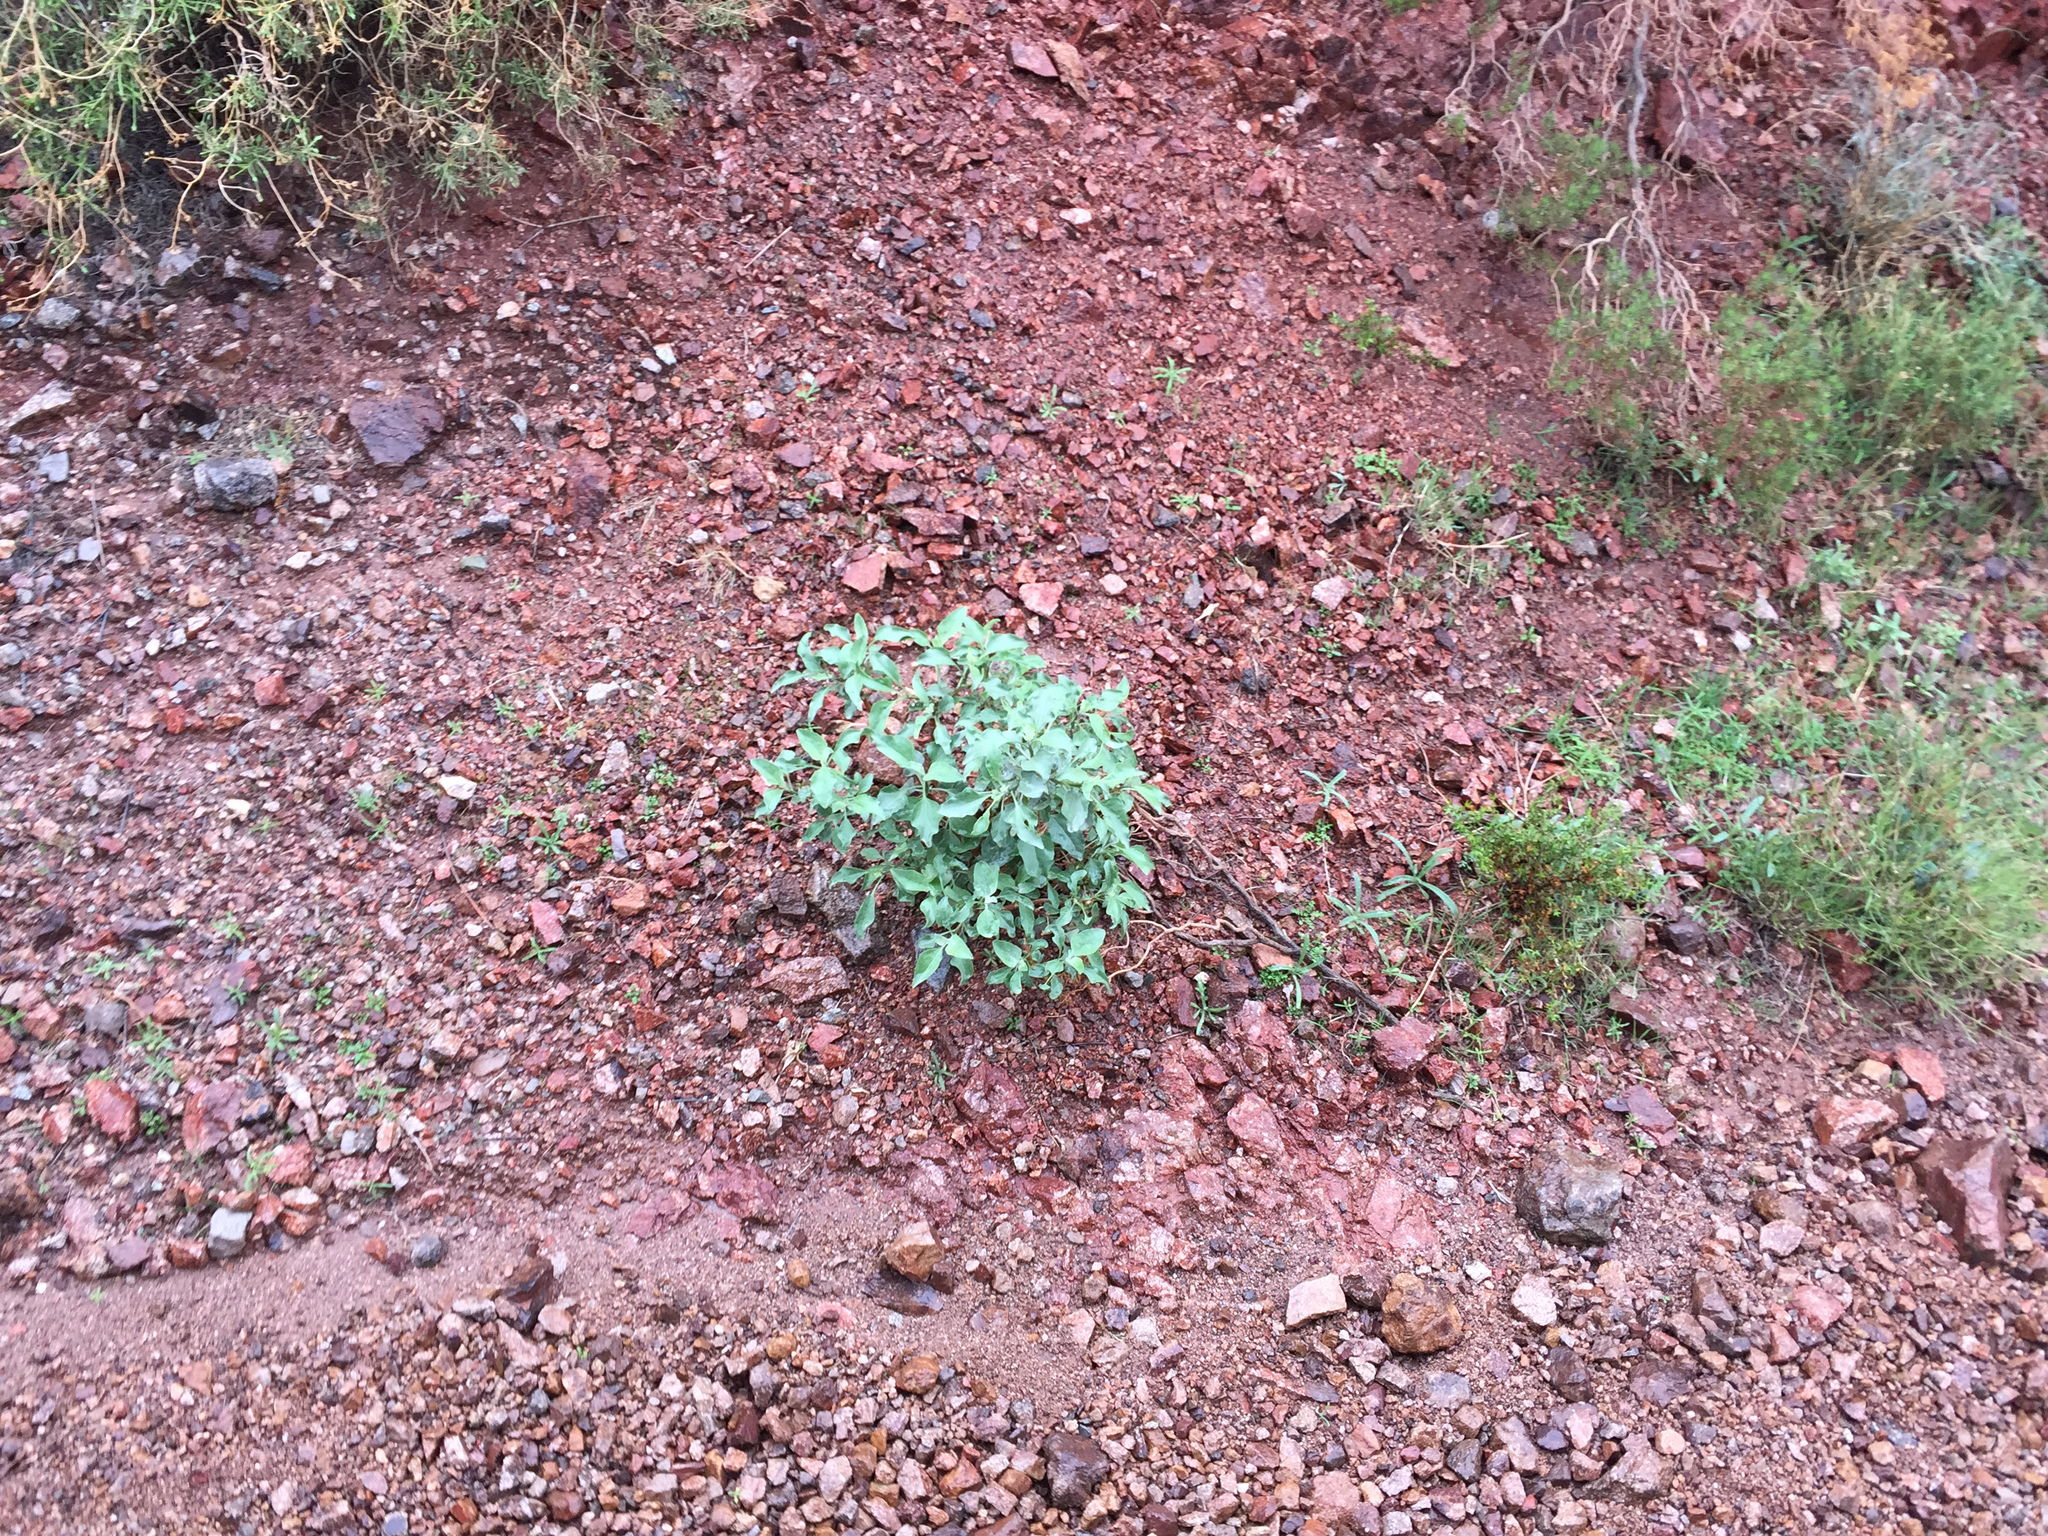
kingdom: Plantae
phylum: Tracheophyta
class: Magnoliopsida
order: Asterales
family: Asteraceae
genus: Encelia
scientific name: Encelia farinosa
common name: Brittlebush
